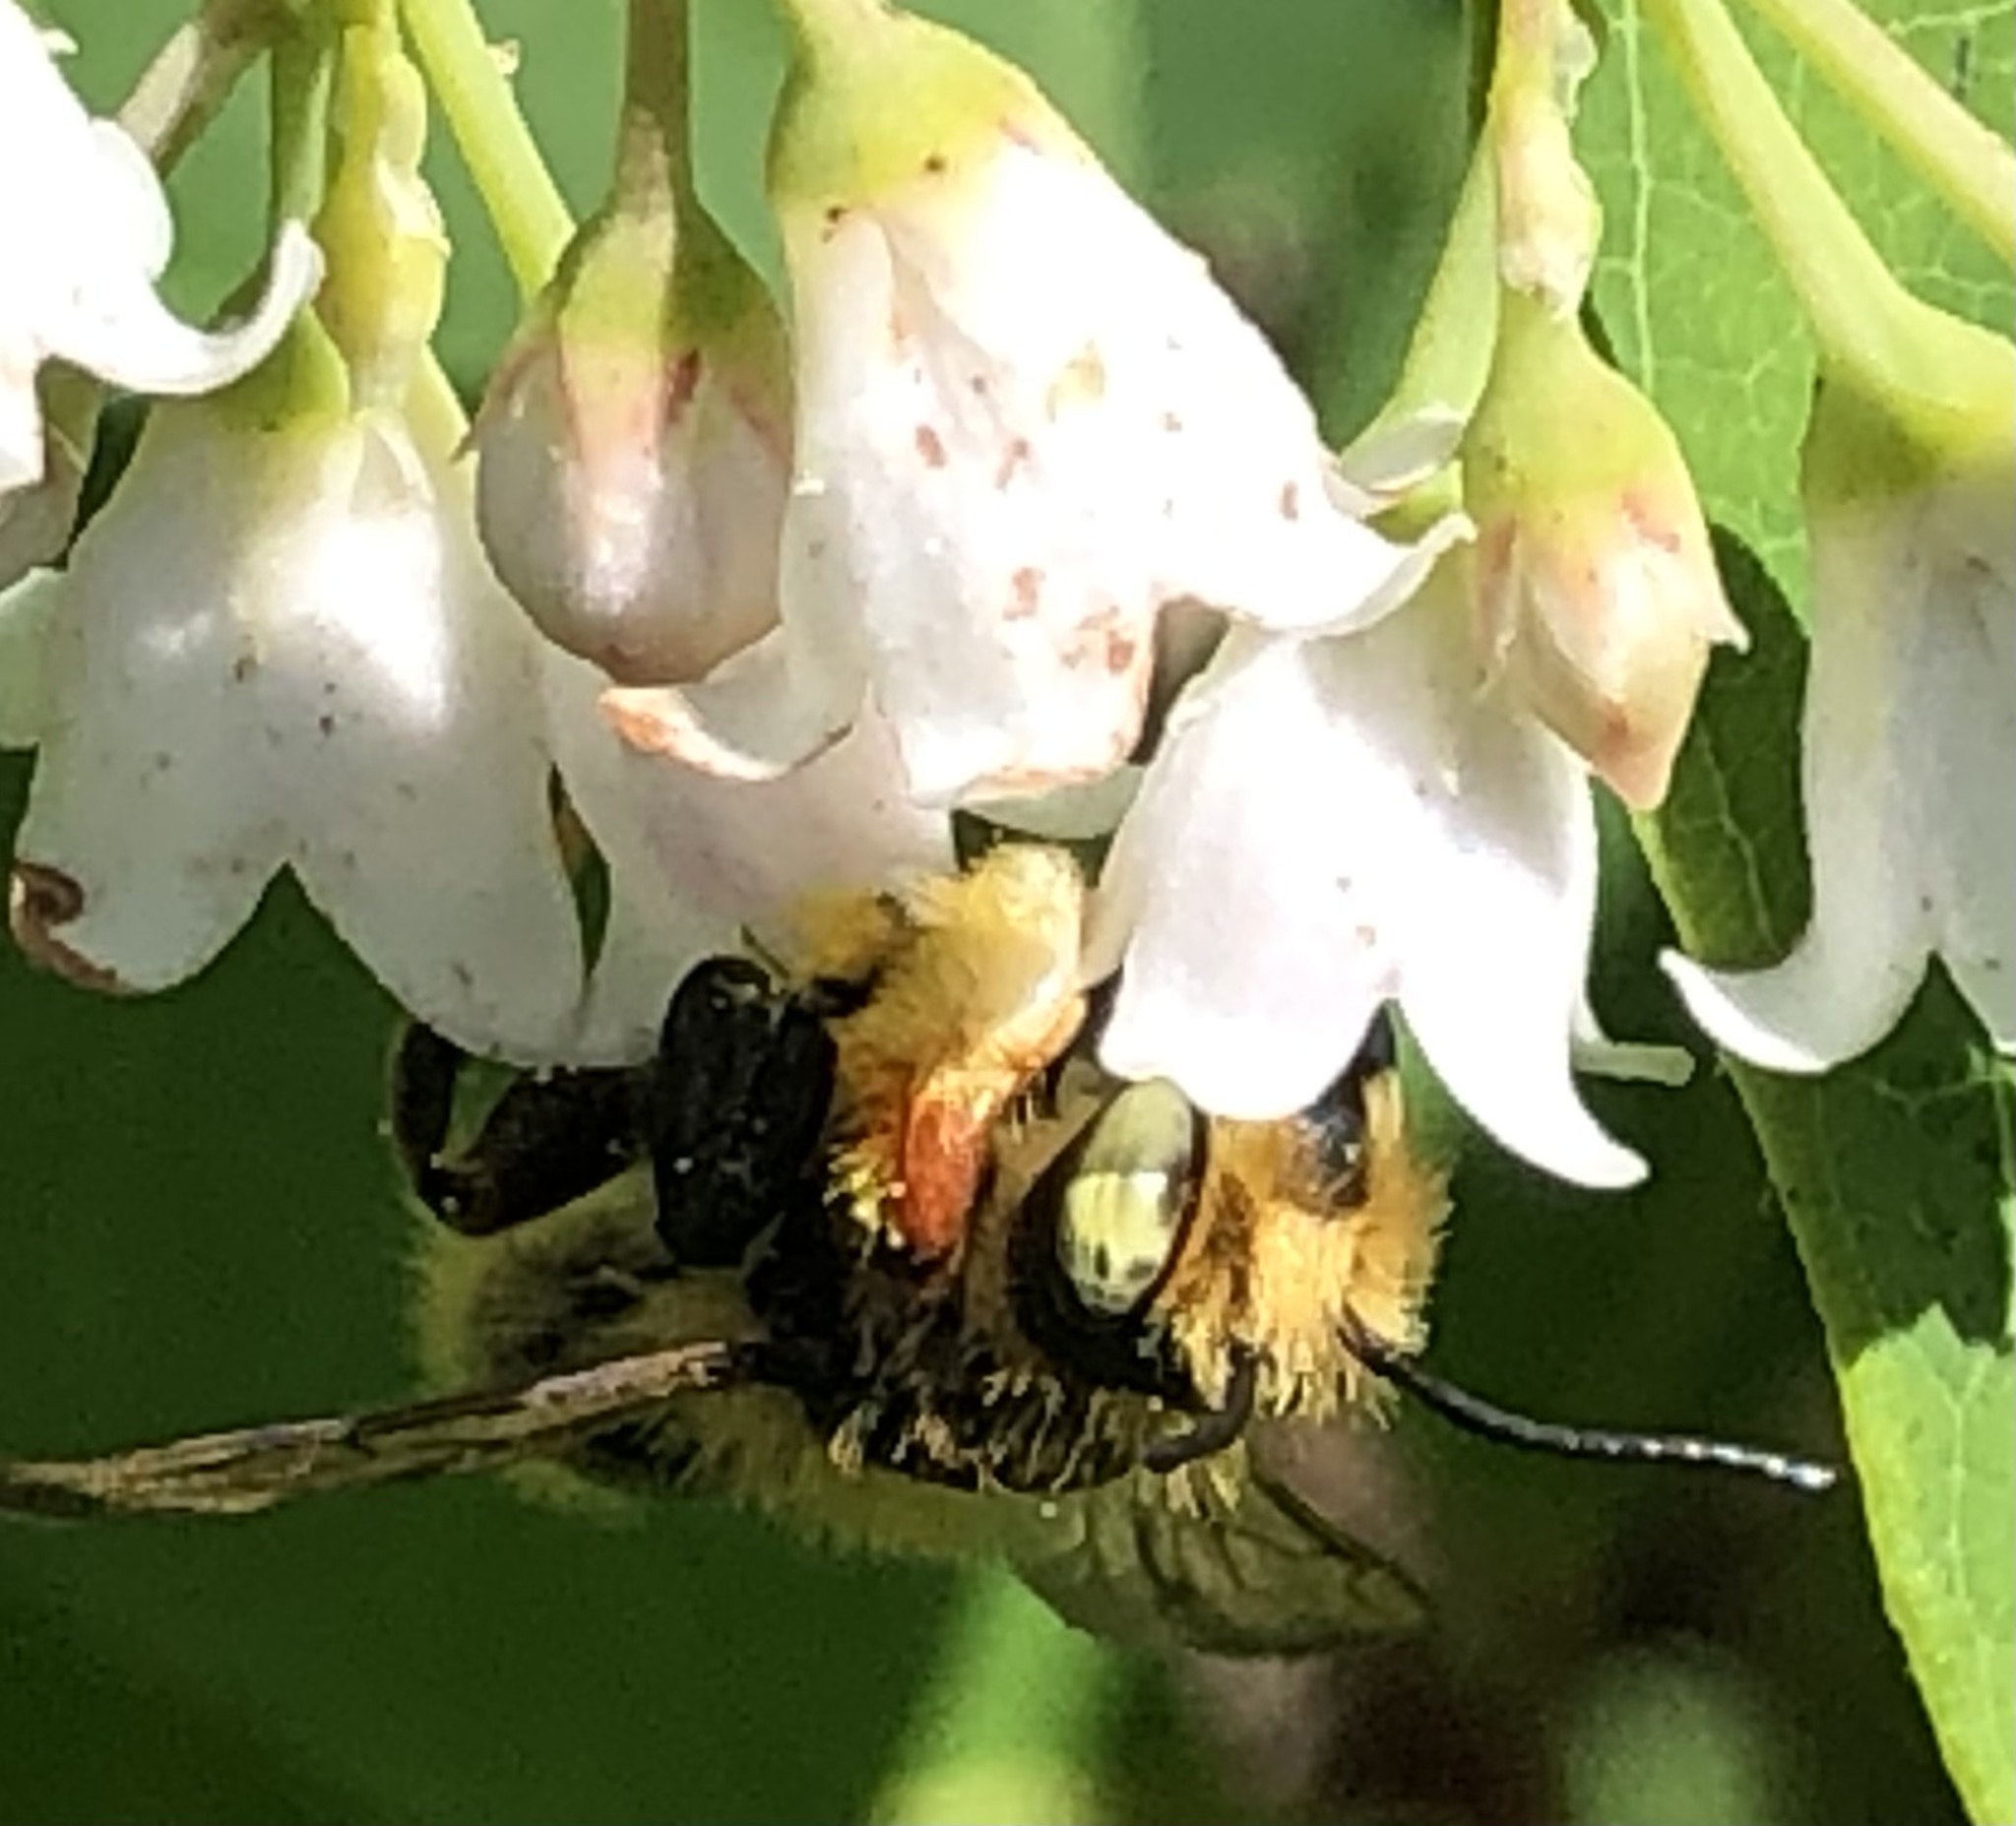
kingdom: Animalia
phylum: Arthropoda
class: Insecta
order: Hymenoptera
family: Megachilidae
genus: Megachile
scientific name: Megachile latimanus
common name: Leafcutting bee
